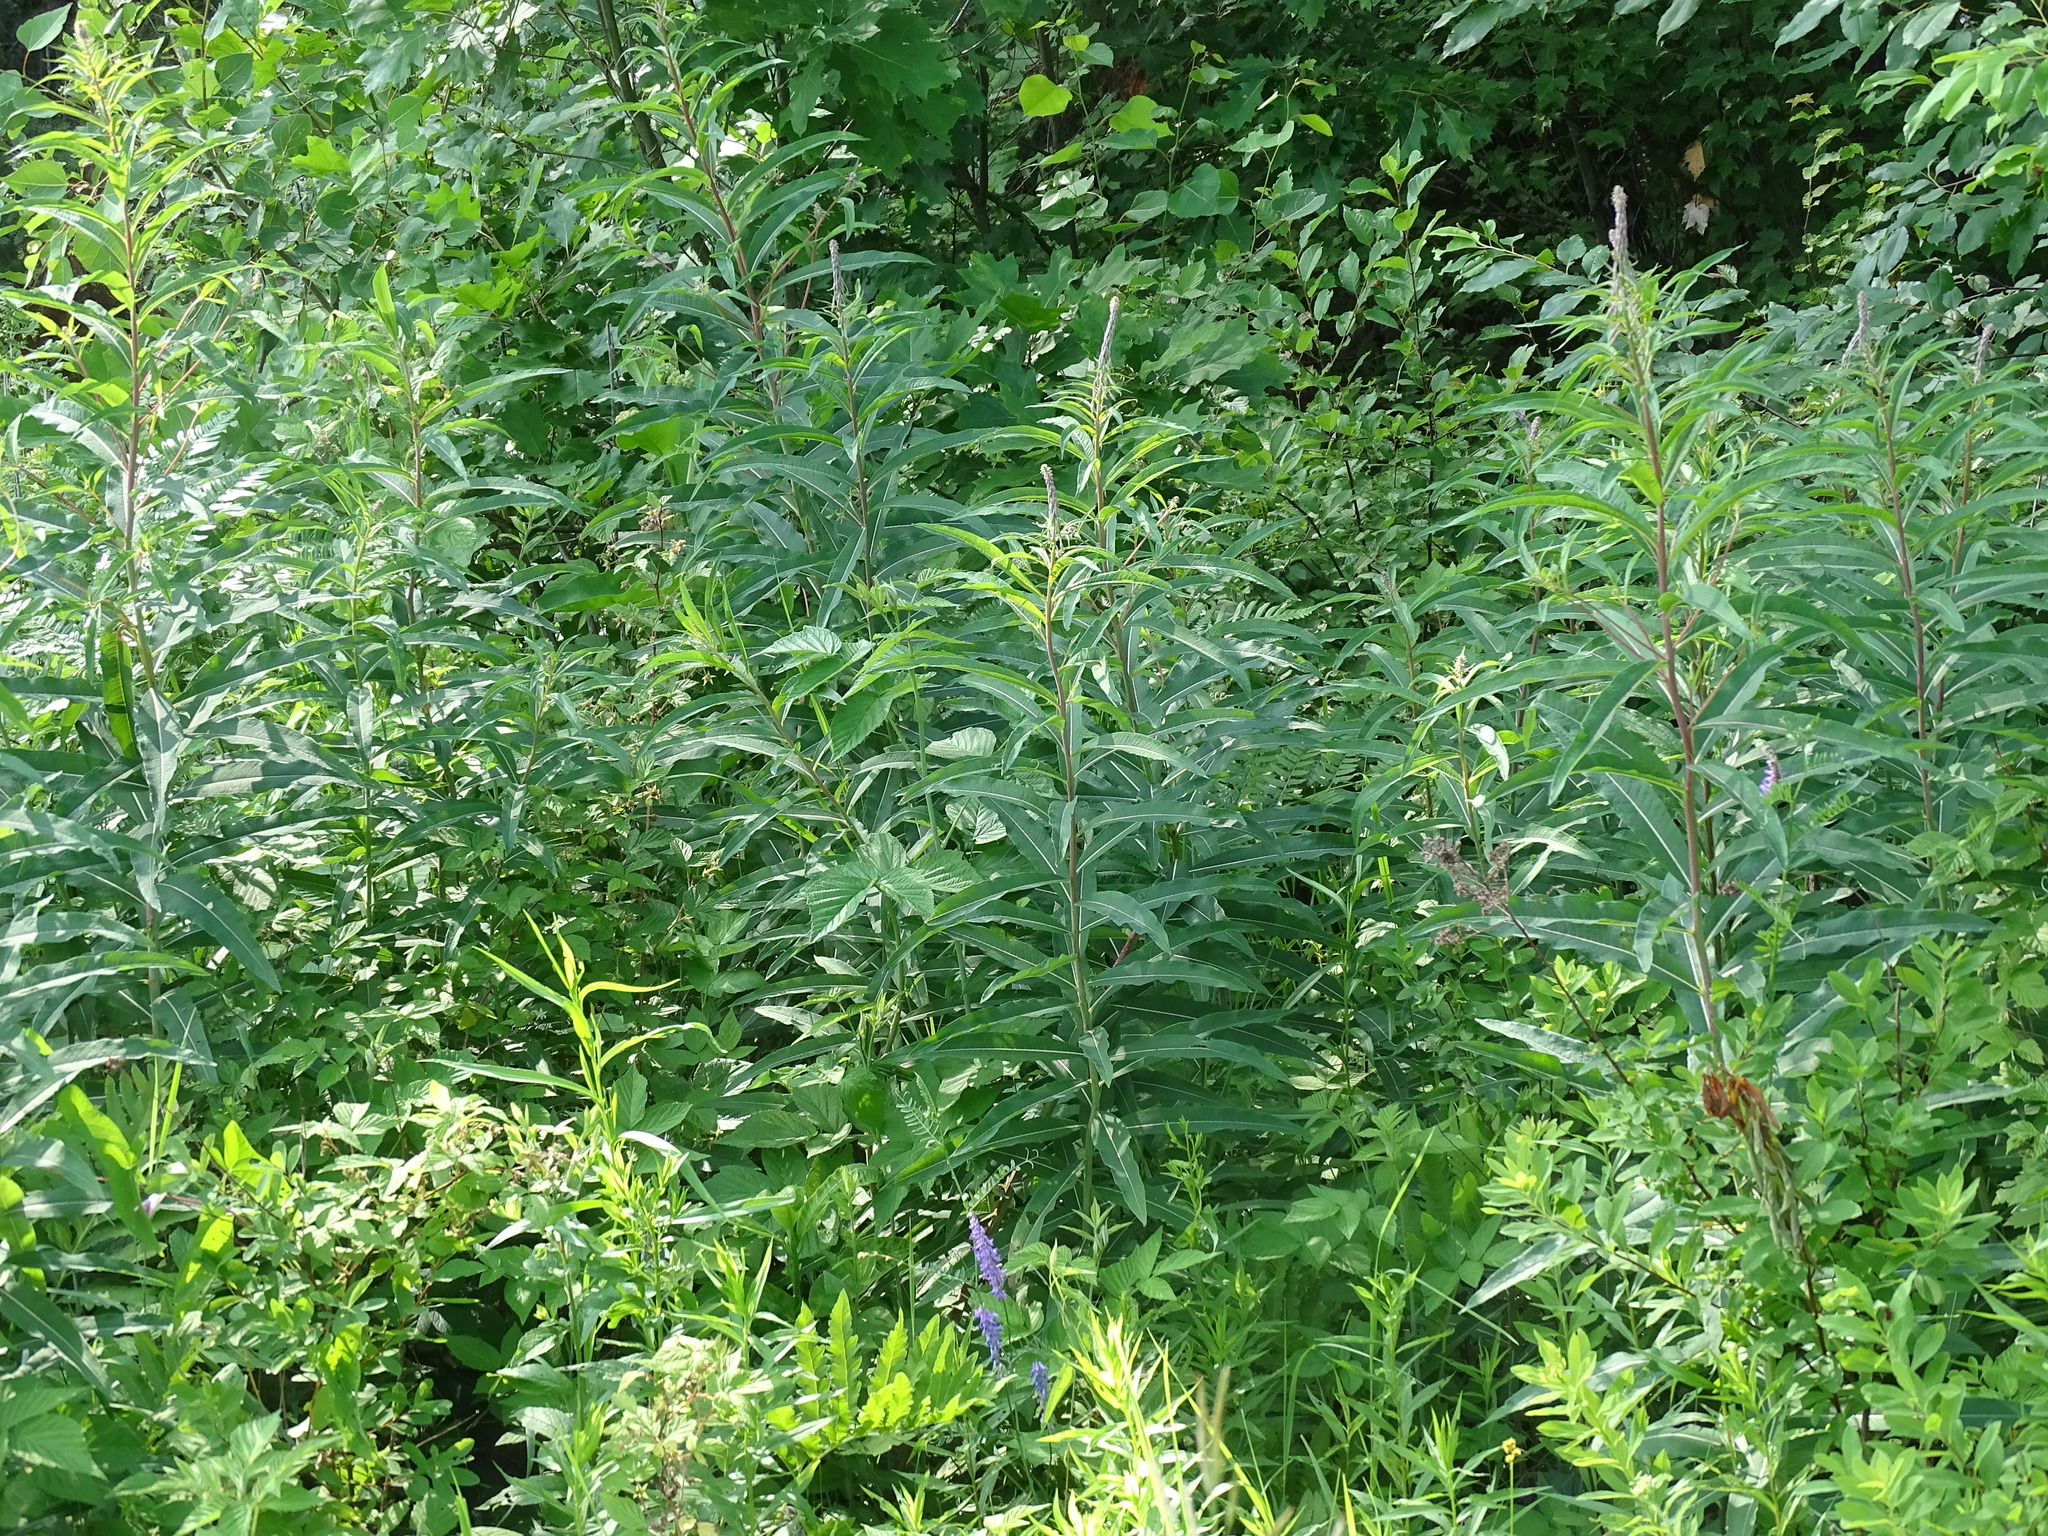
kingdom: Plantae
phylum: Tracheophyta
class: Magnoliopsida
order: Myrtales
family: Onagraceae
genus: Chamaenerion
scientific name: Chamaenerion angustifolium
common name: Fireweed
